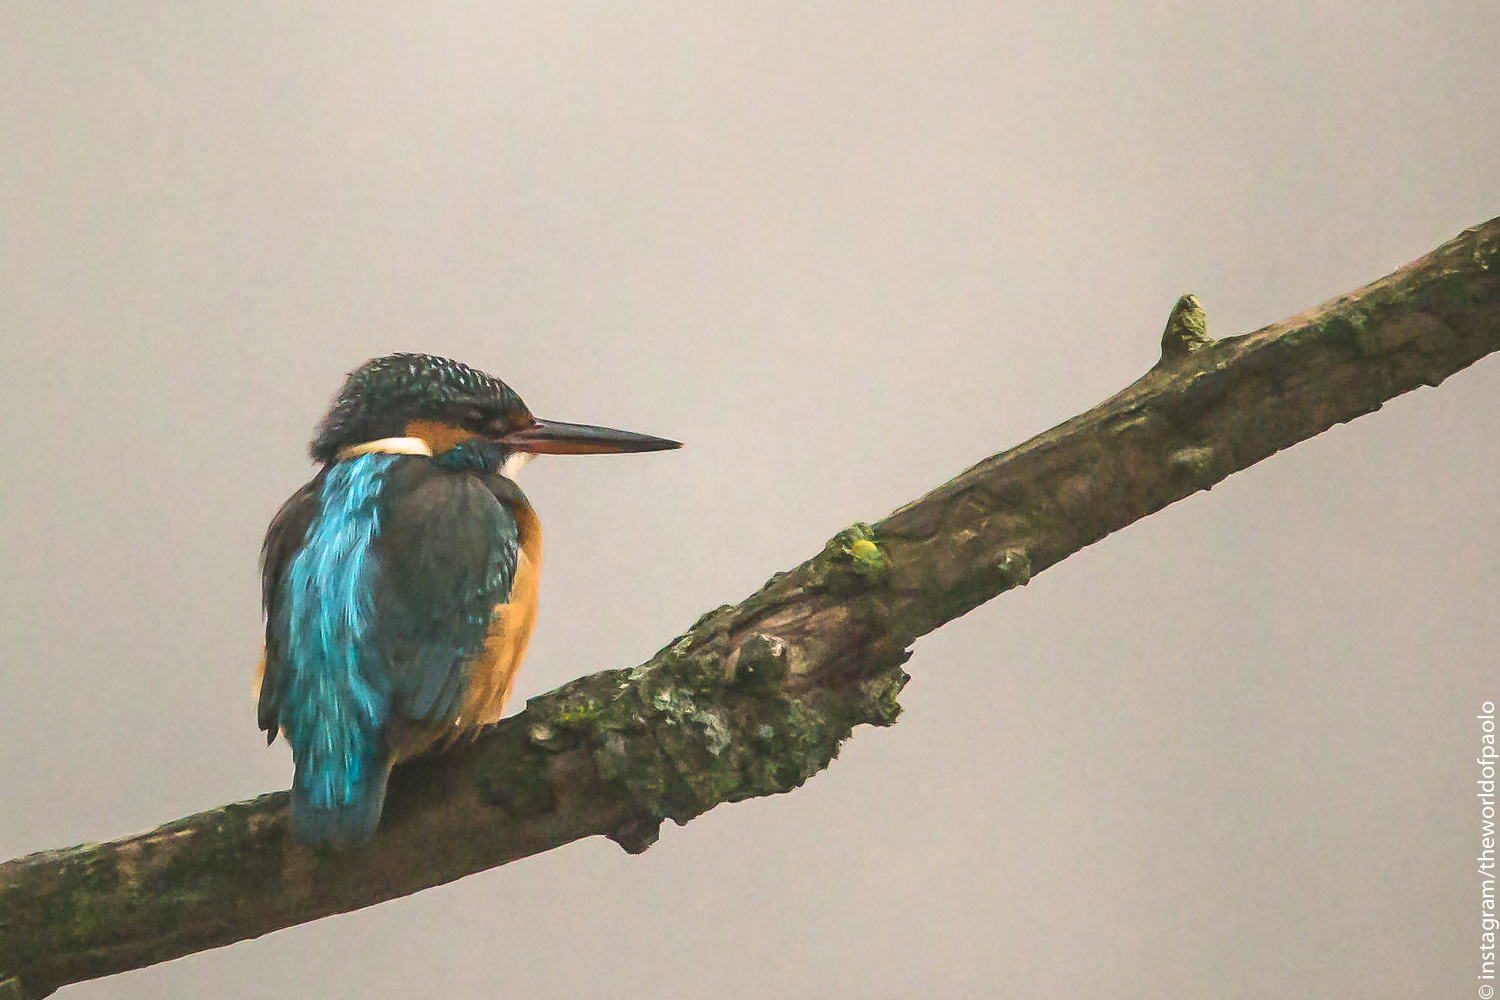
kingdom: Animalia
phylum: Chordata
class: Aves
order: Coraciiformes
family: Alcedinidae
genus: Alcedo
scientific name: Alcedo atthis
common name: Common kingfisher
